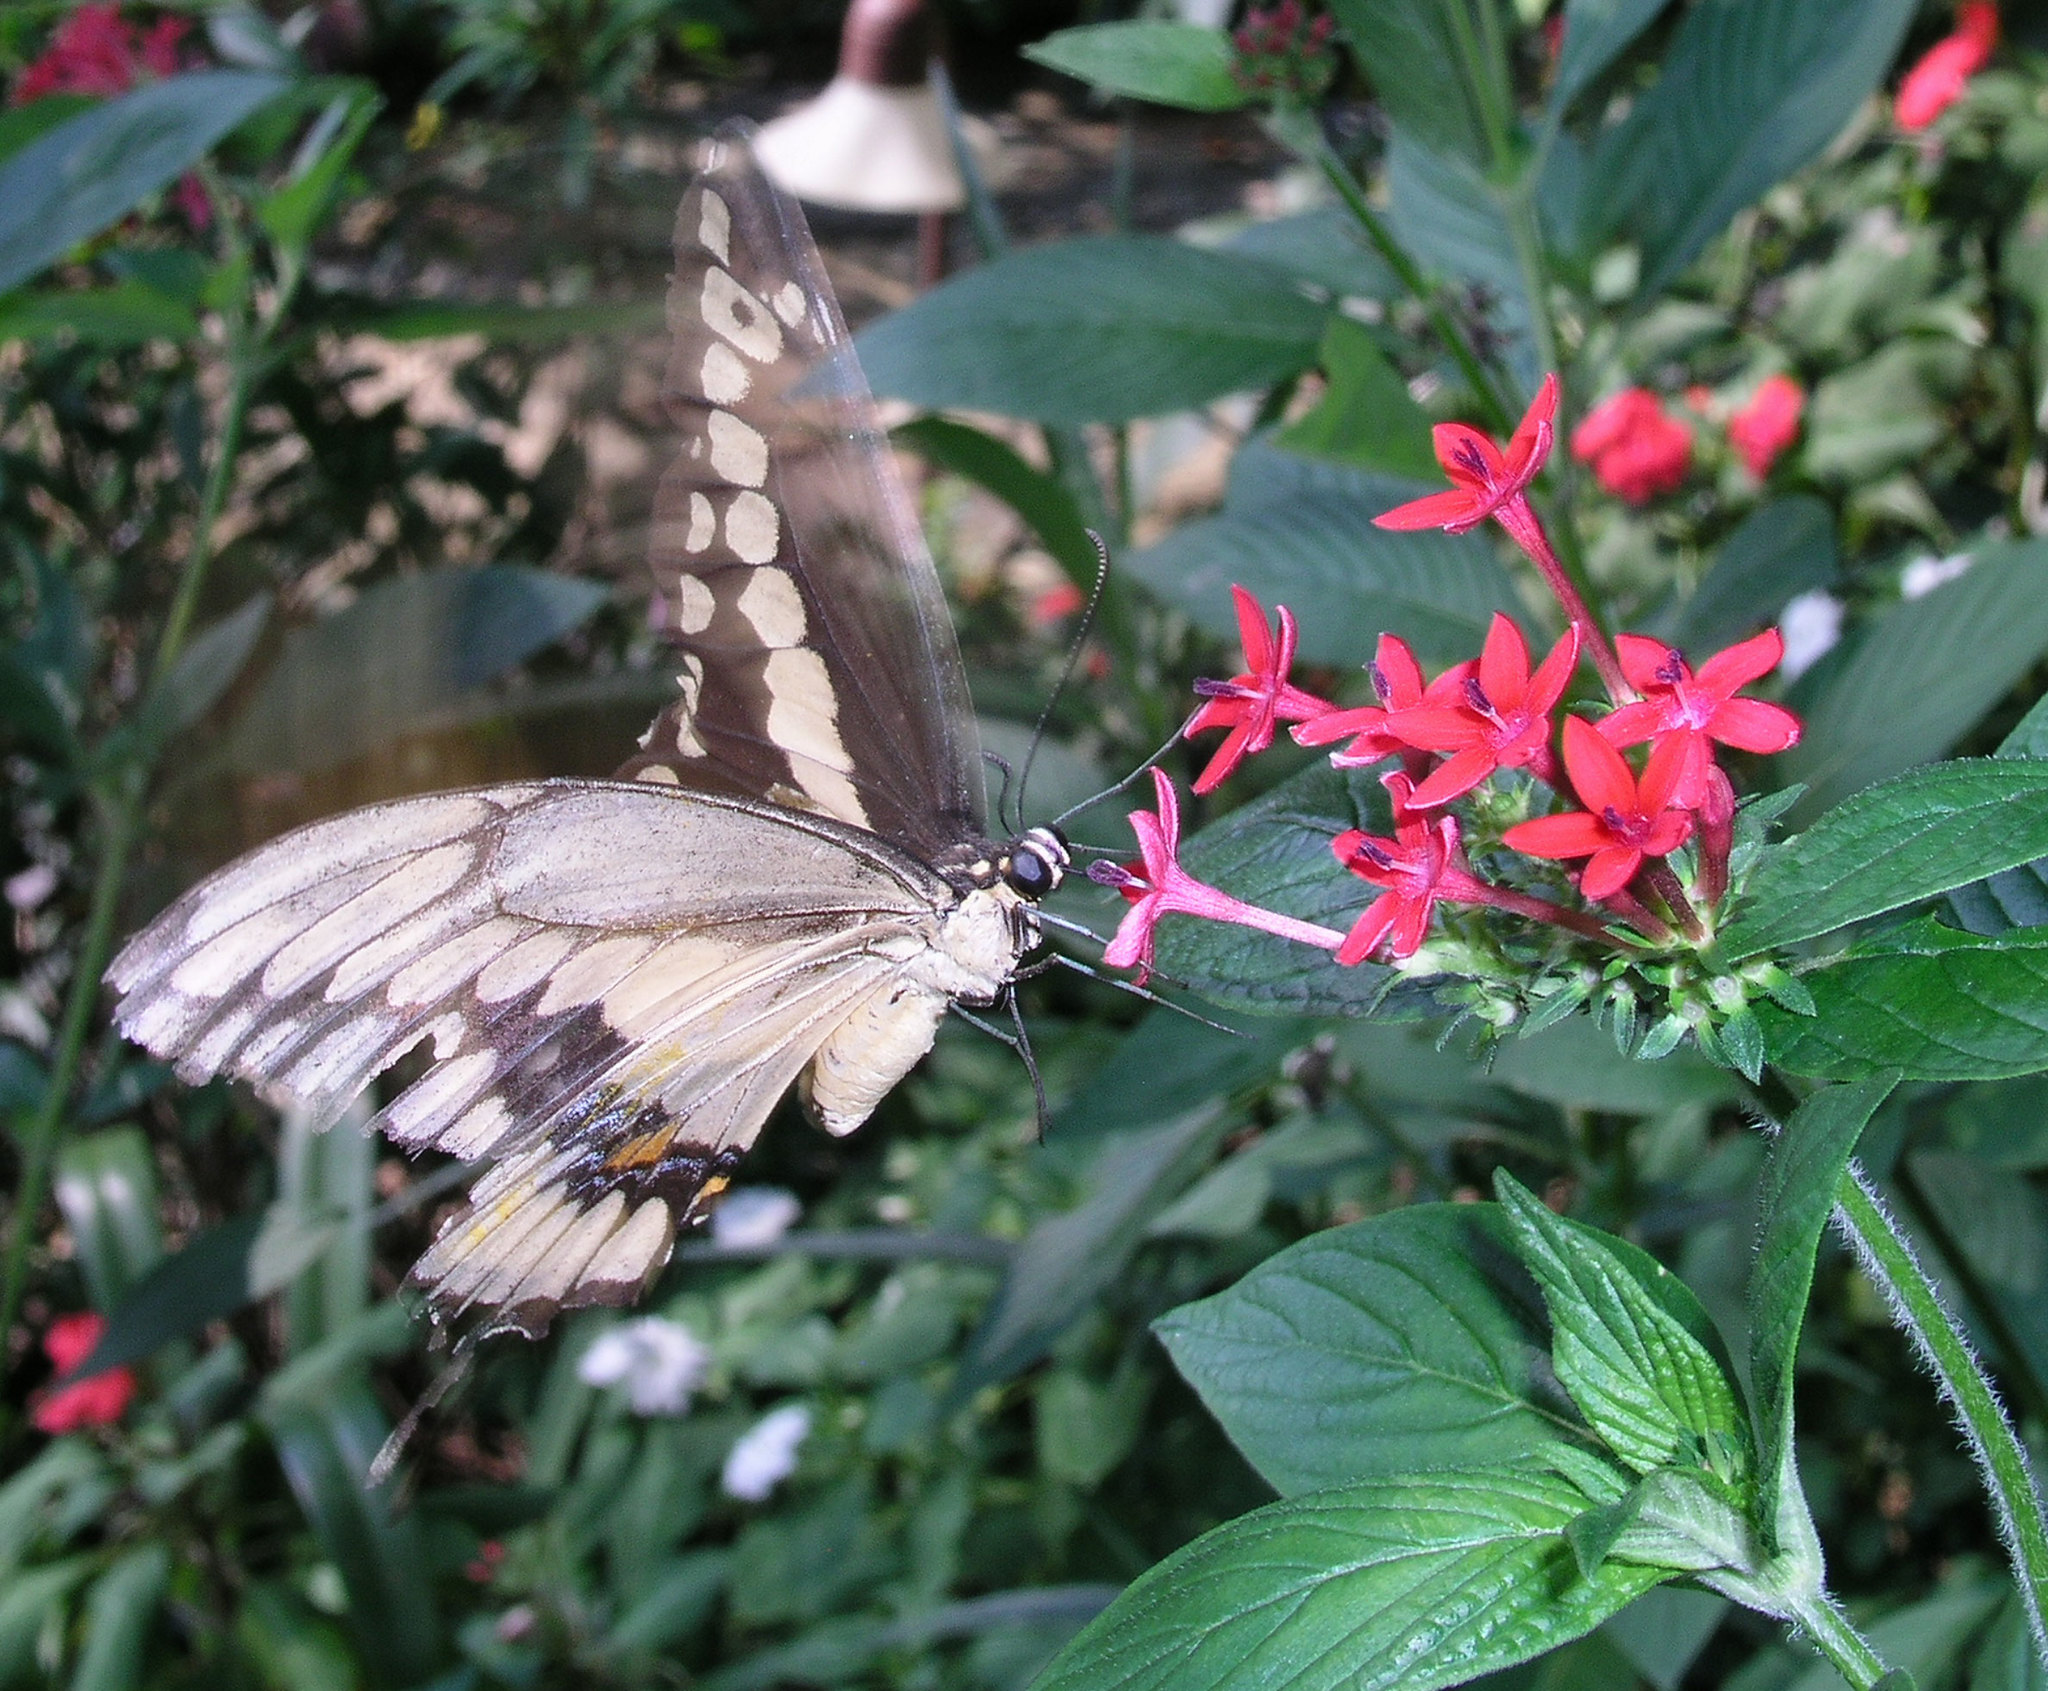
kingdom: Animalia
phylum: Arthropoda
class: Insecta
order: Lepidoptera
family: Papilionidae
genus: Papilio
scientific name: Papilio cresphontes
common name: Giant swallowtail
